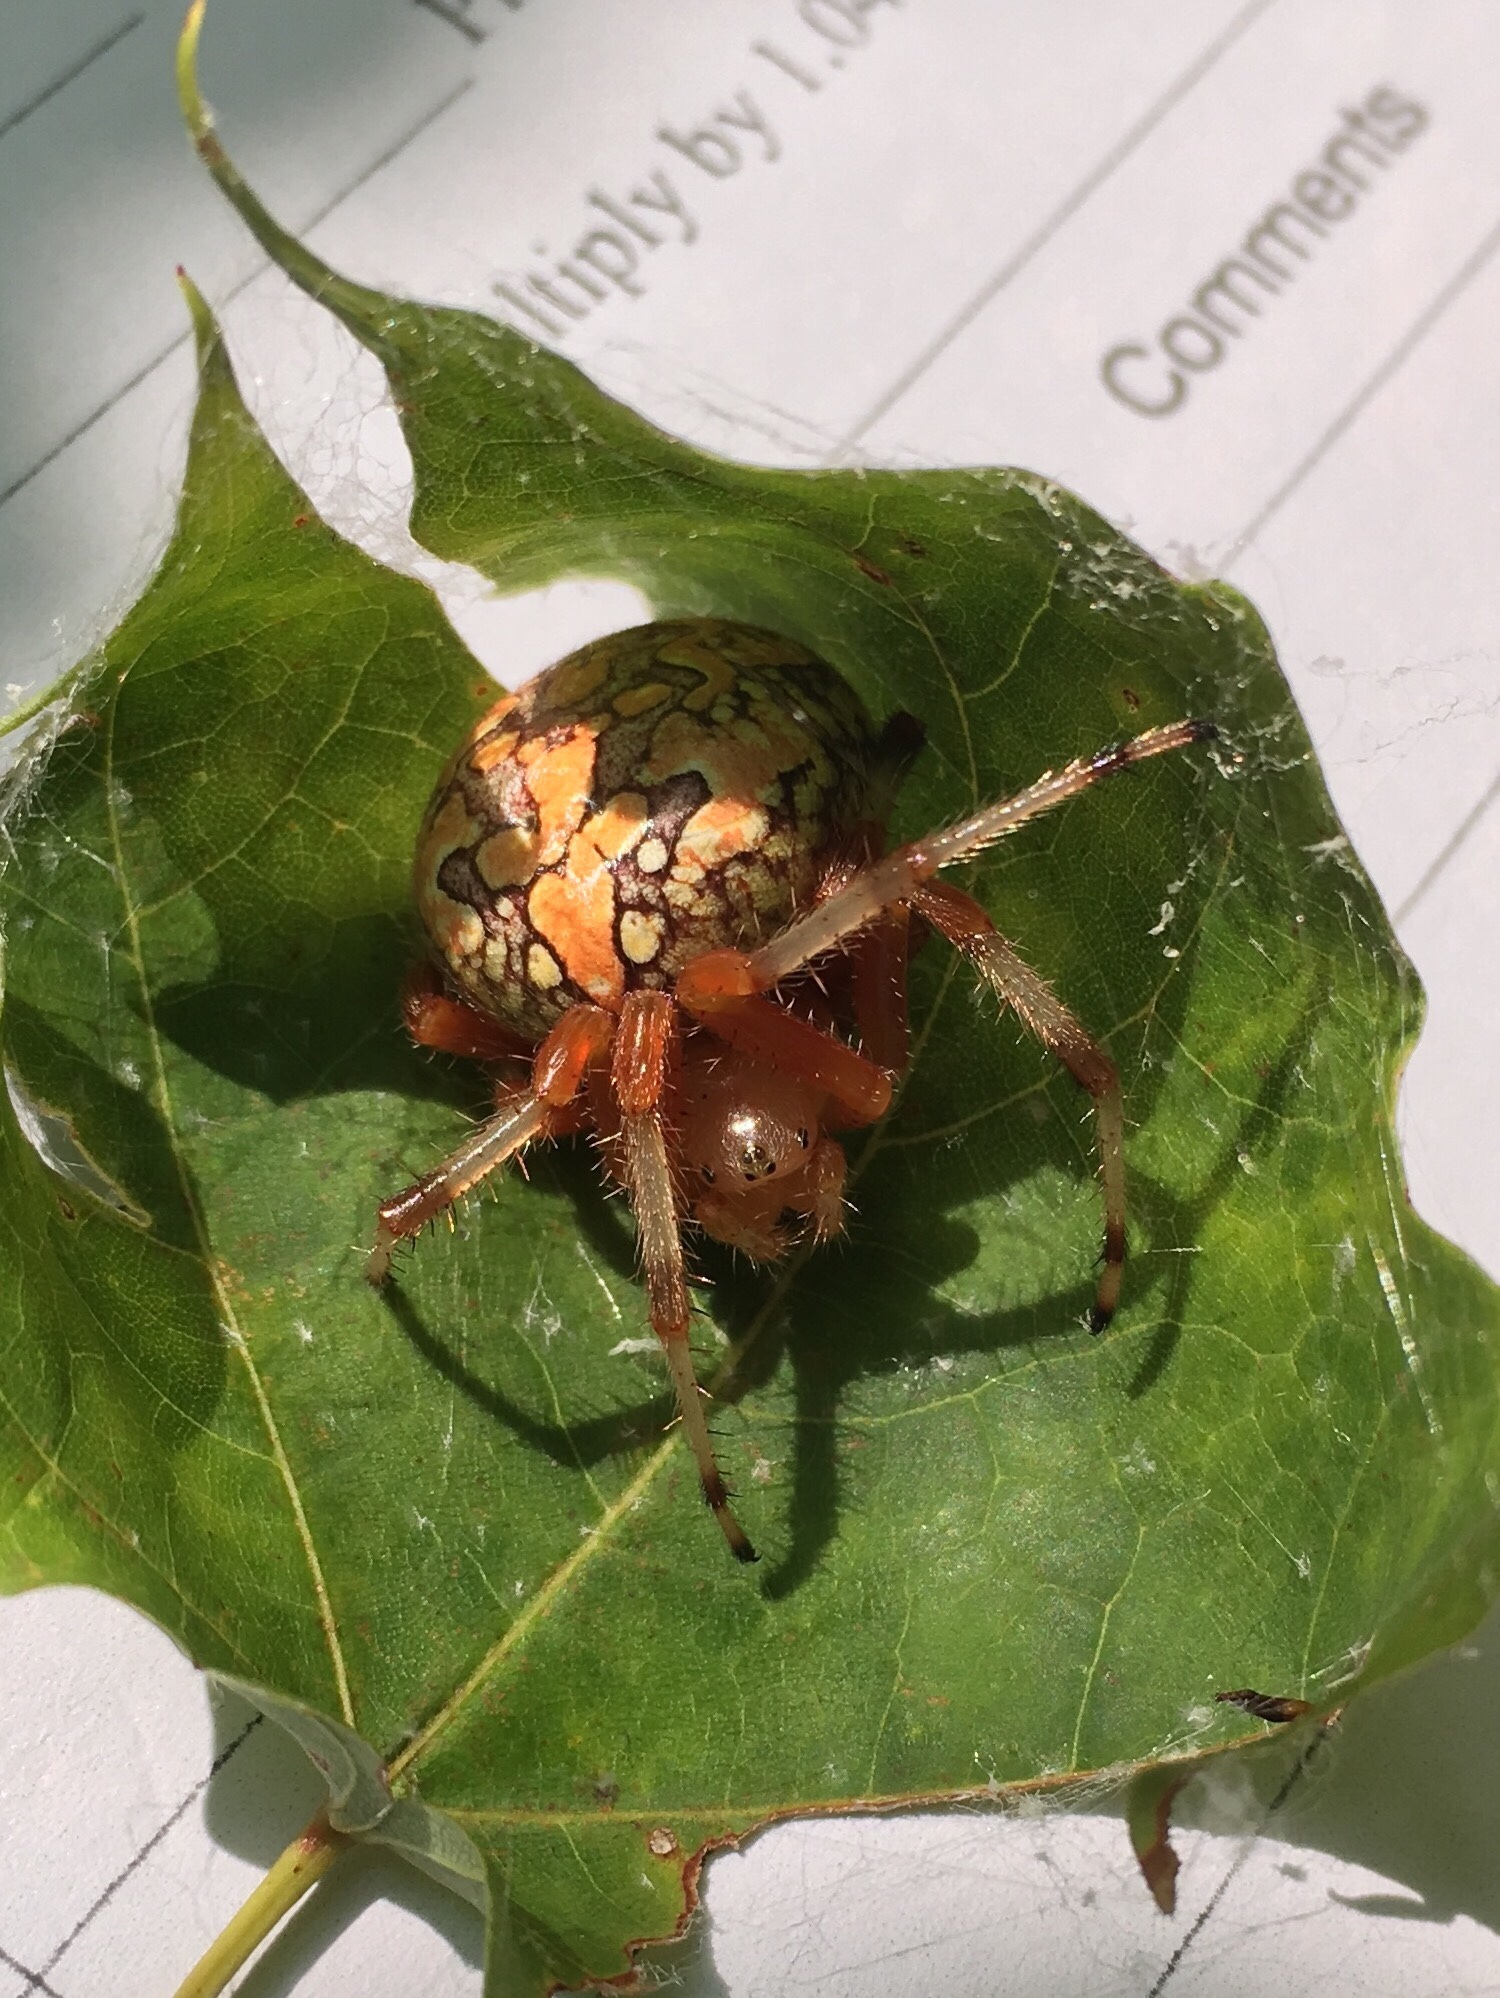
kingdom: Animalia
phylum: Arthropoda
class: Arachnida
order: Araneae
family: Araneidae
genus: Araneus
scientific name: Araneus marmoreus
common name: Marbled orbweaver
